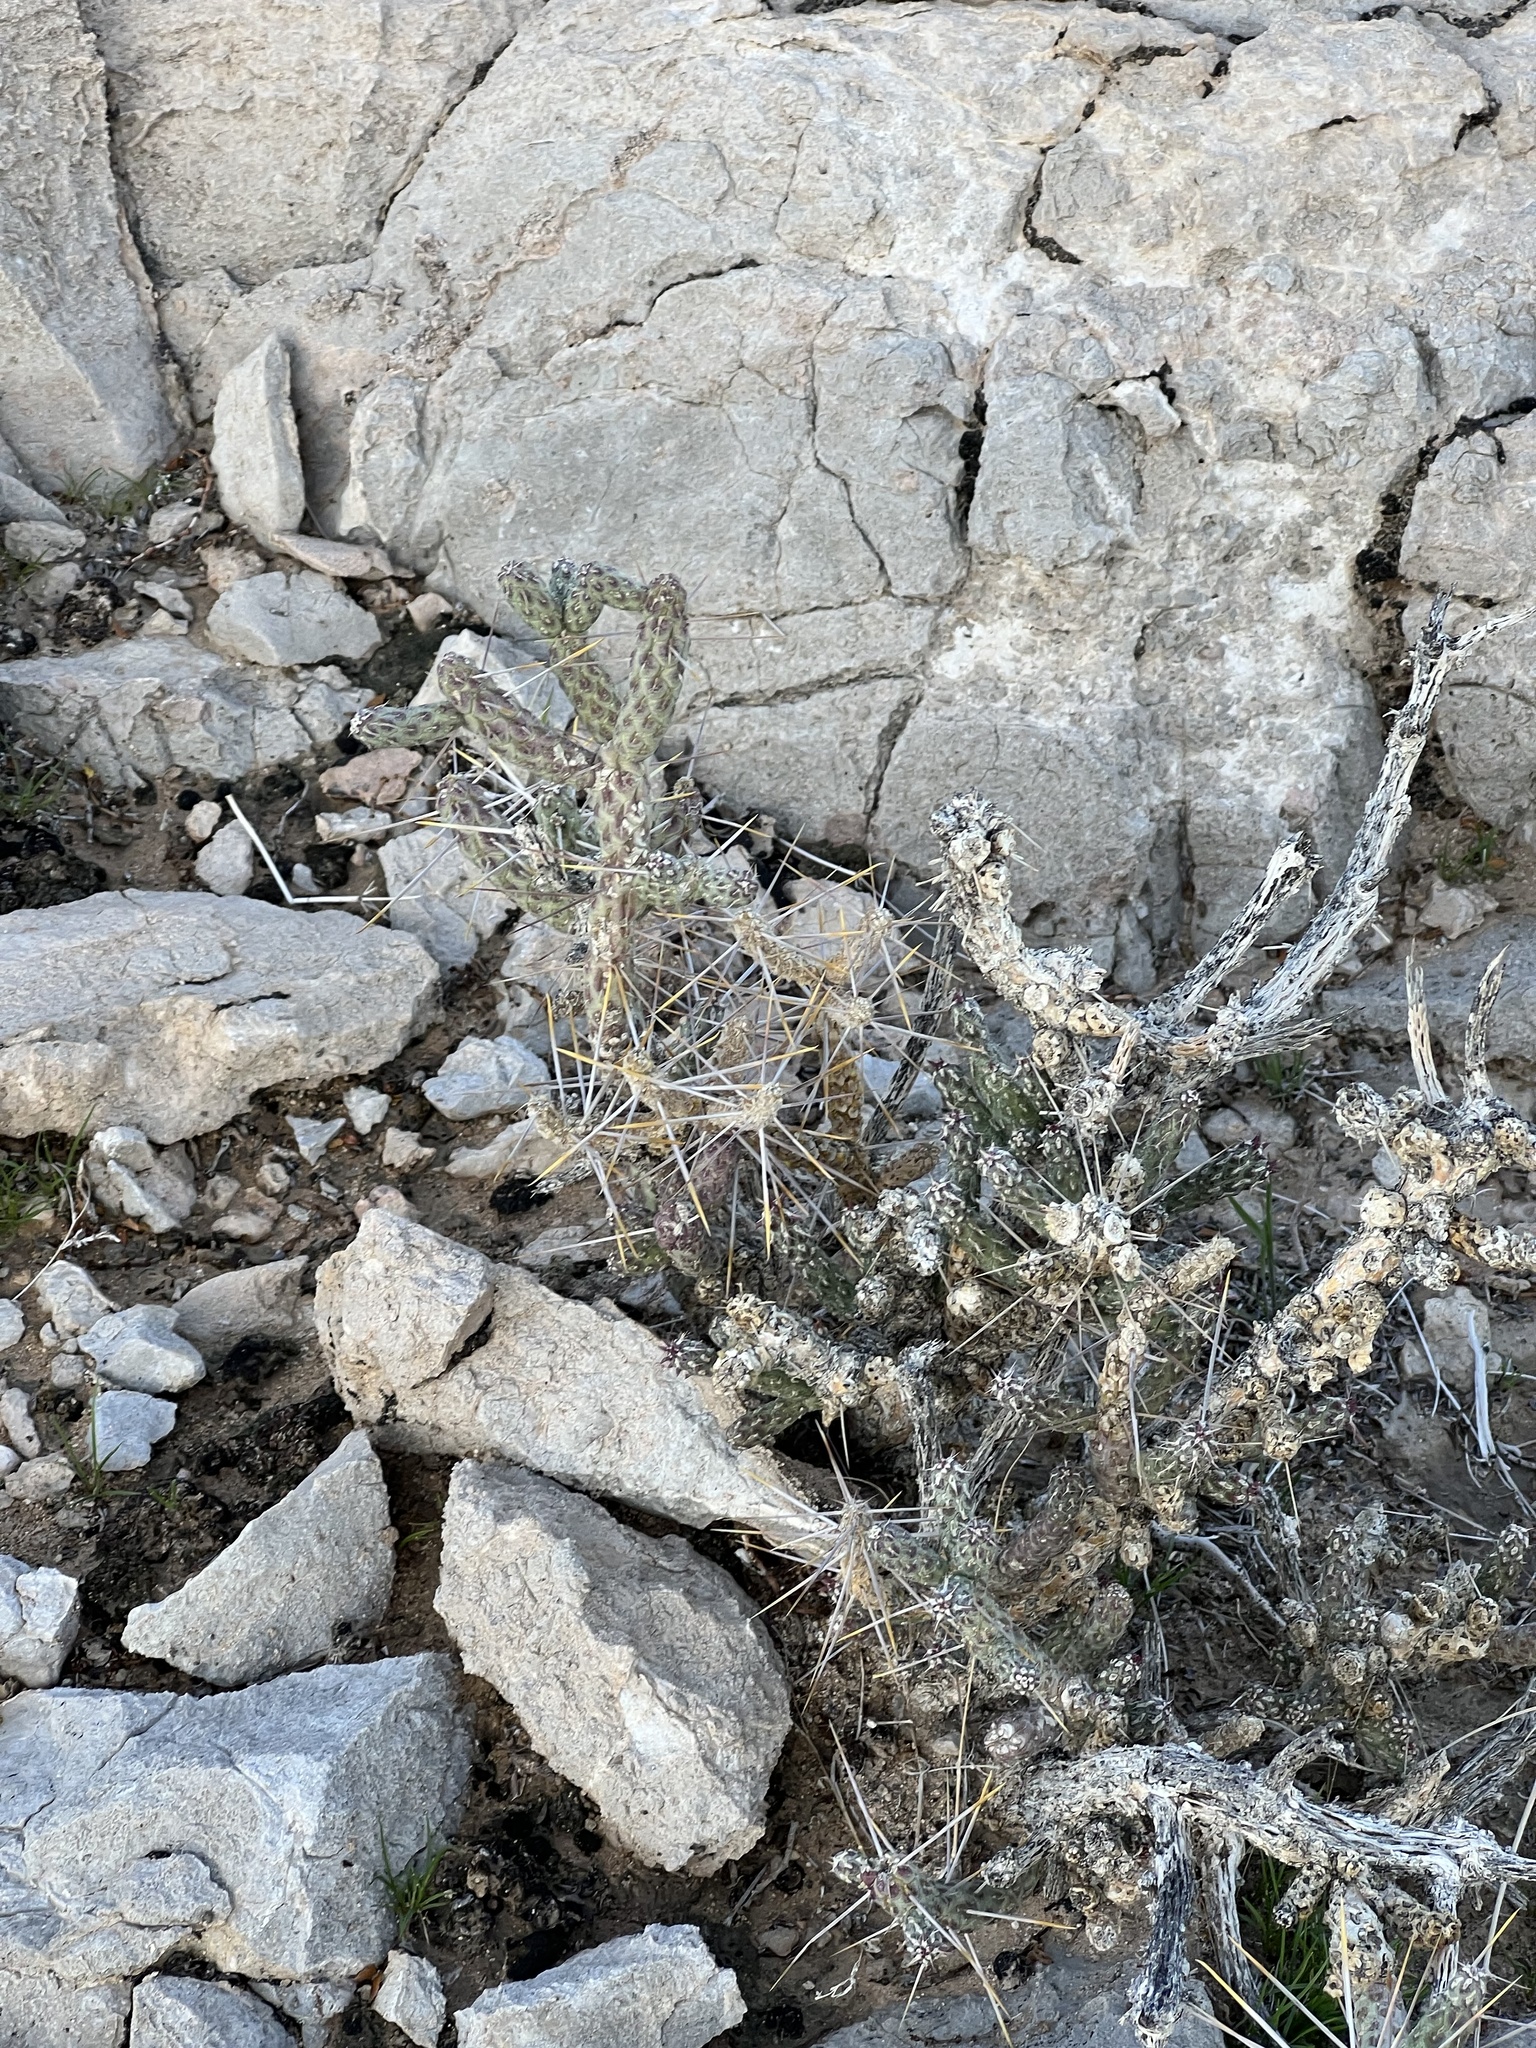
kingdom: Plantae
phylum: Tracheophyta
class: Magnoliopsida
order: Caryophyllales
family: Cactaceae
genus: Cylindropuntia
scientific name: Cylindropuntia ramosissima
